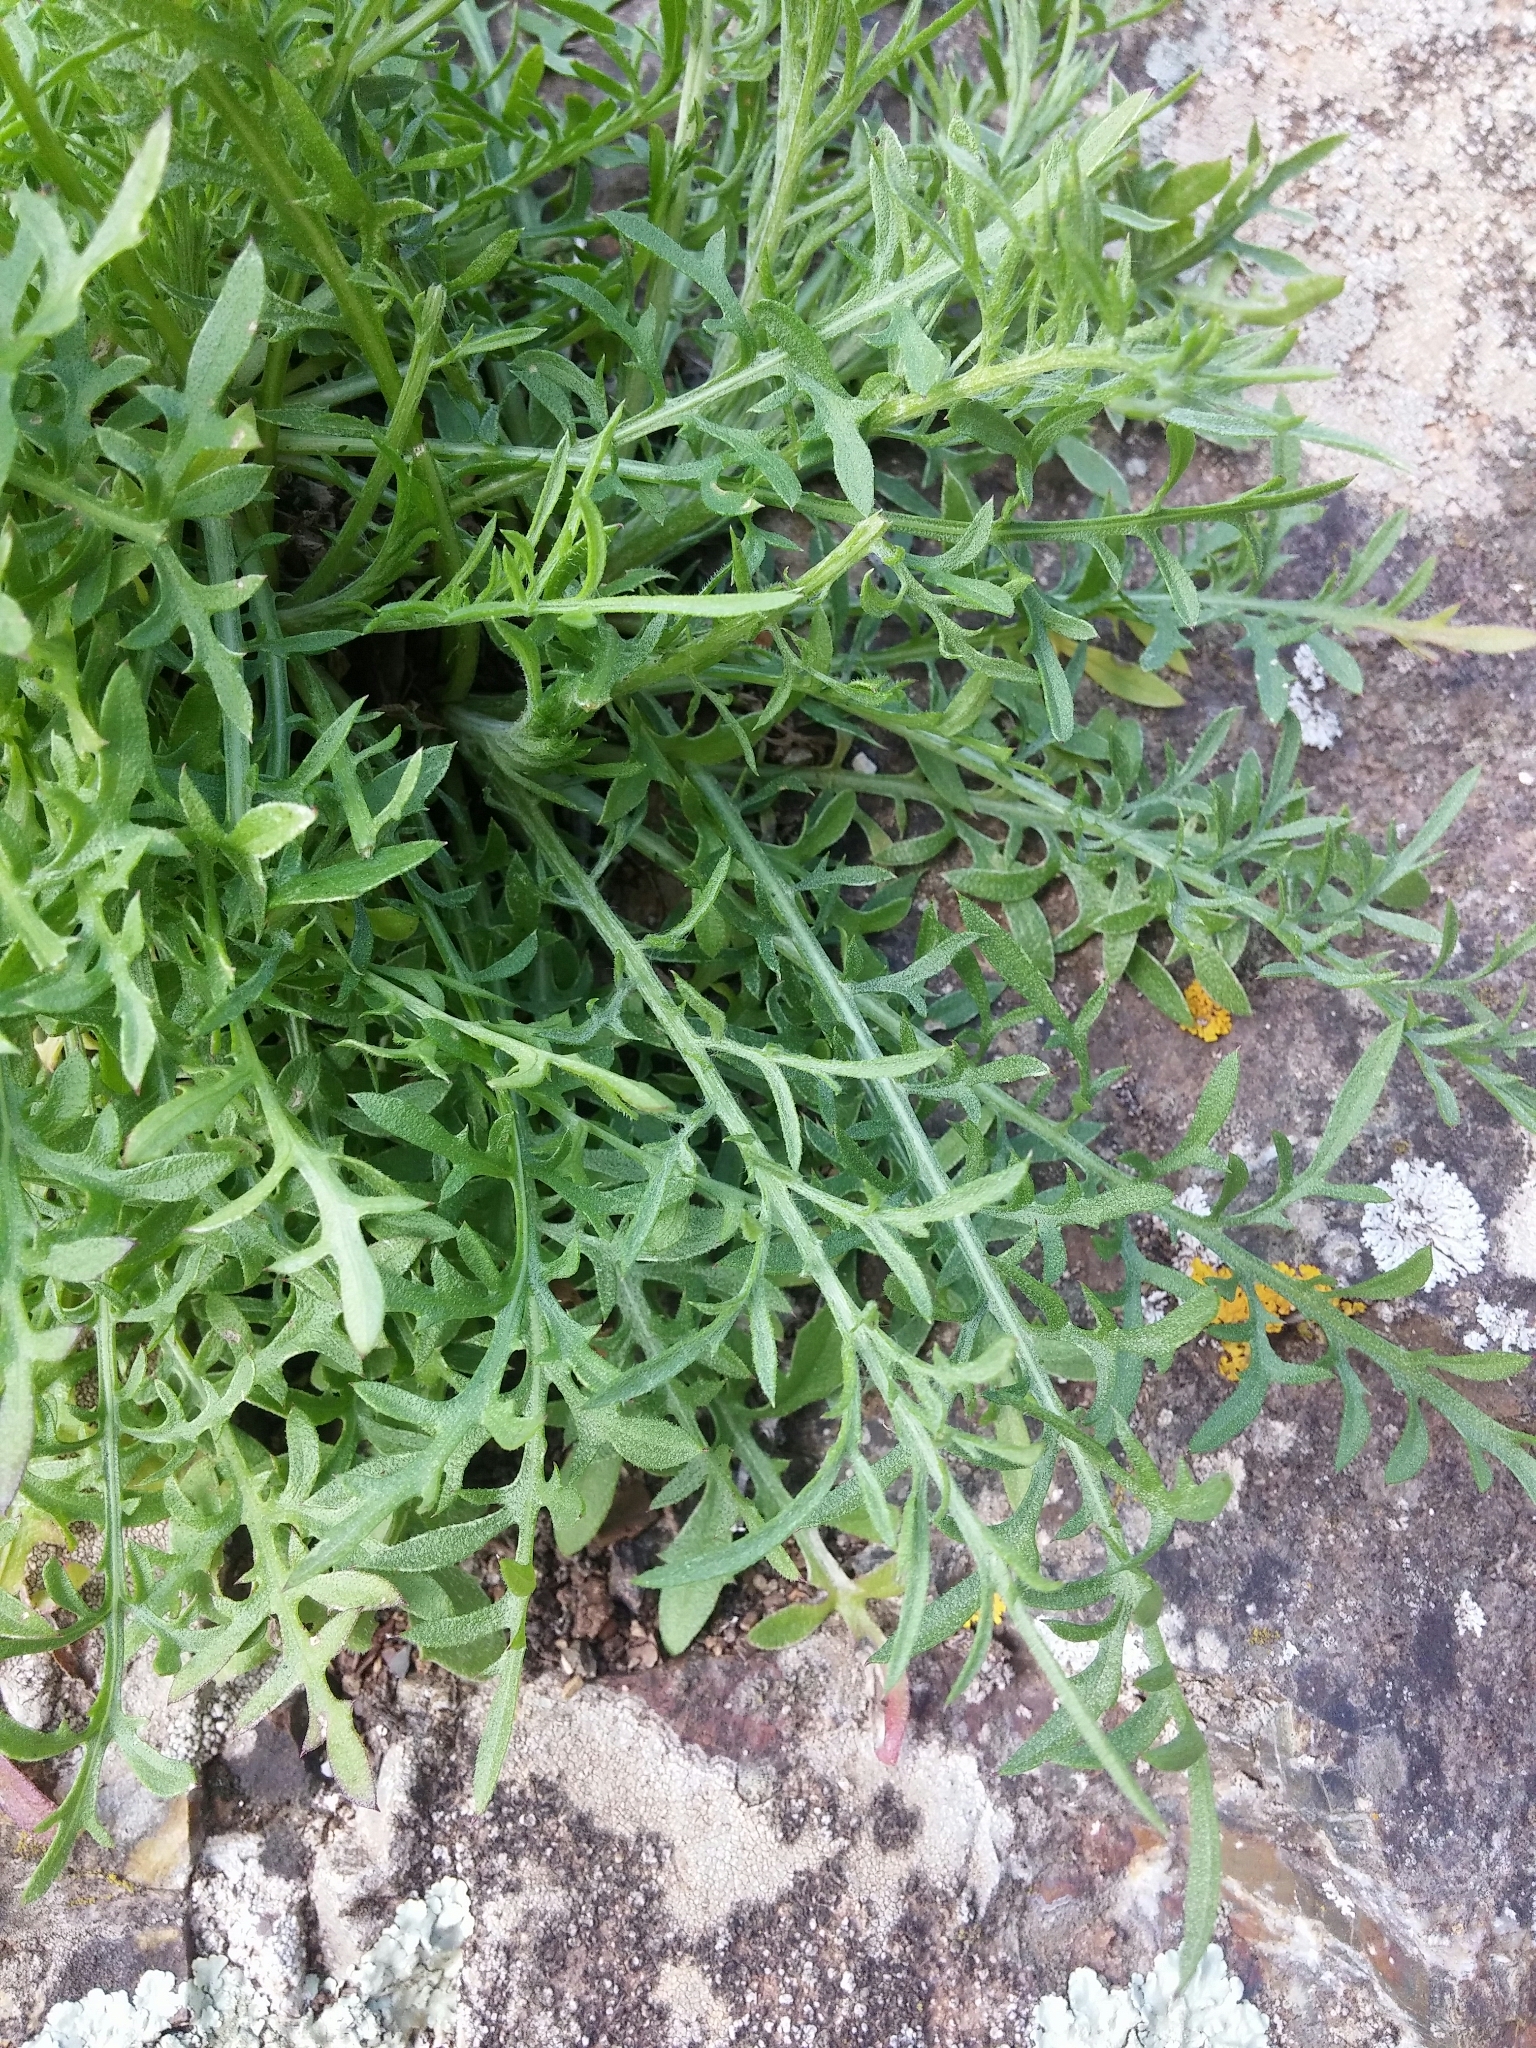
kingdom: Plantae
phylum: Tracheophyta
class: Magnoliopsida
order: Asterales
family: Asteraceae
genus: Centaurea
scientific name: Centaurea aetaliae
